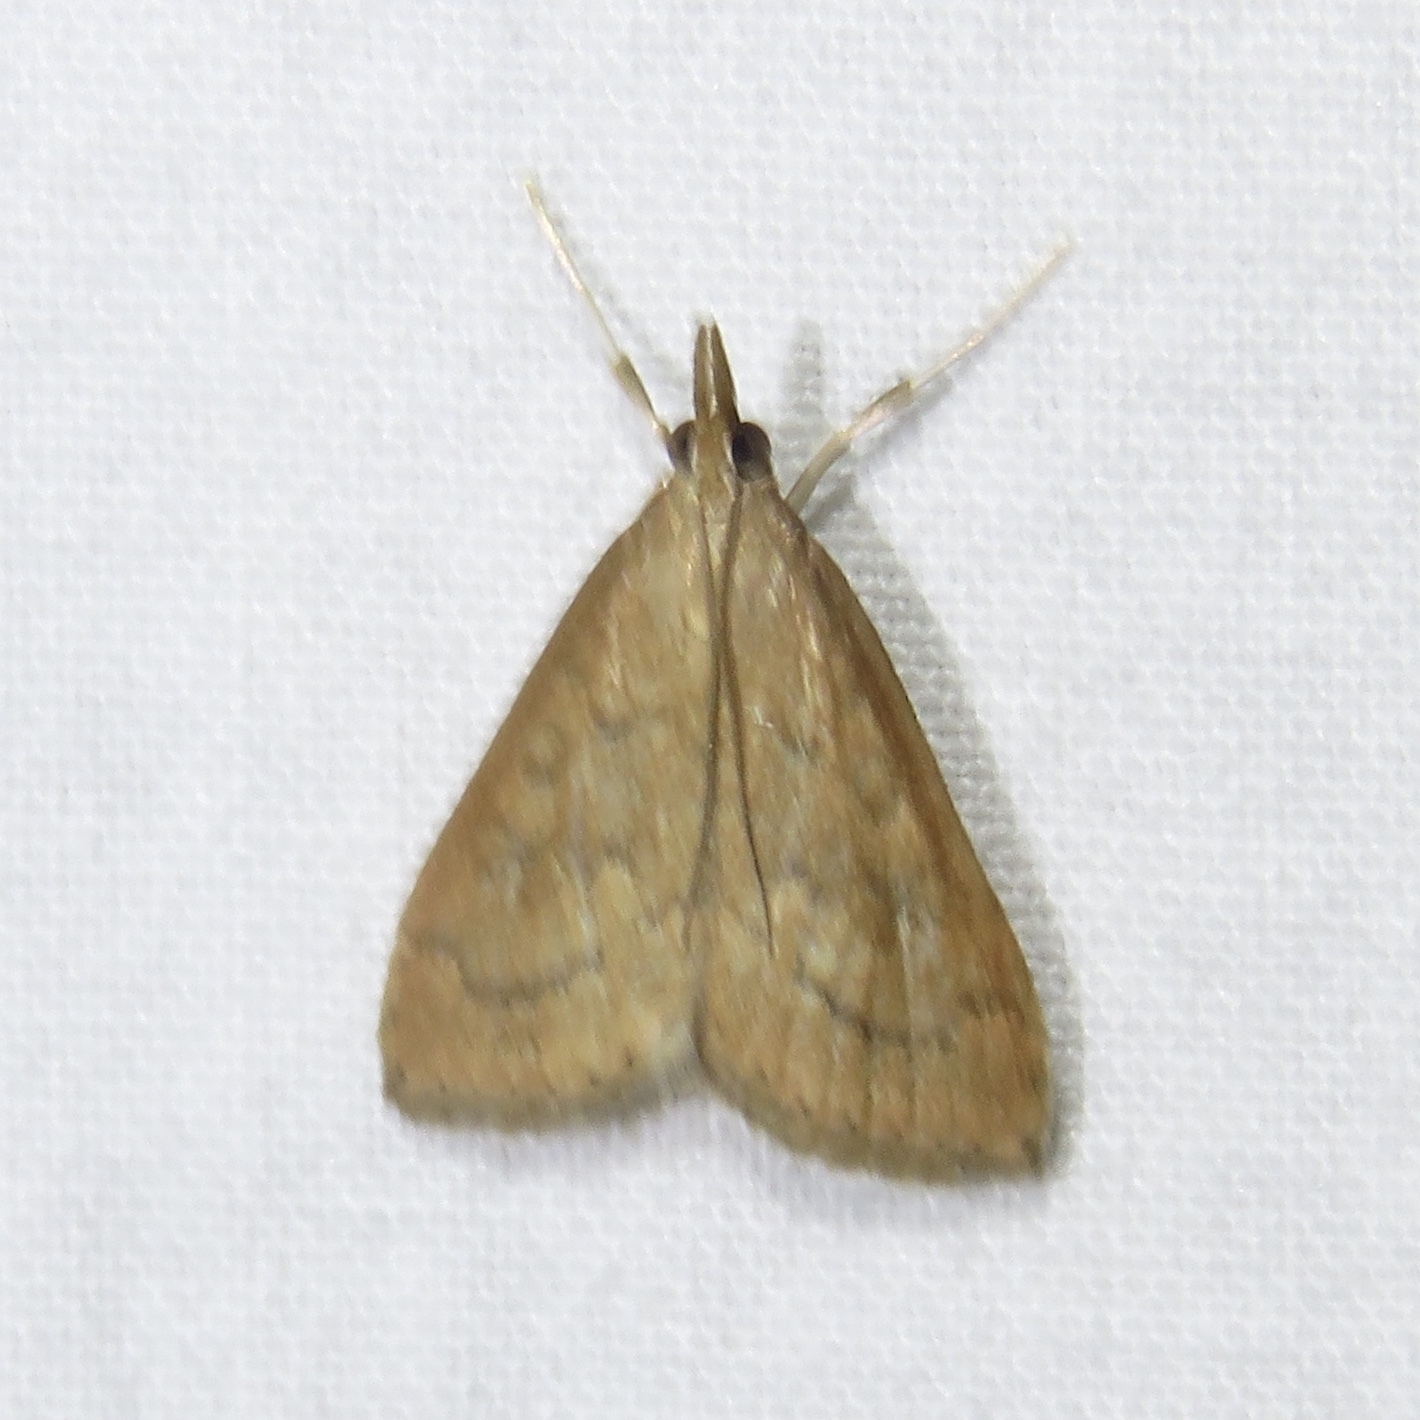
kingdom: Animalia
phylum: Arthropoda
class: Insecta
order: Lepidoptera
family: Crambidae
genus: Udea
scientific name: Udea rubigalis
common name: Celery leaftier moth
